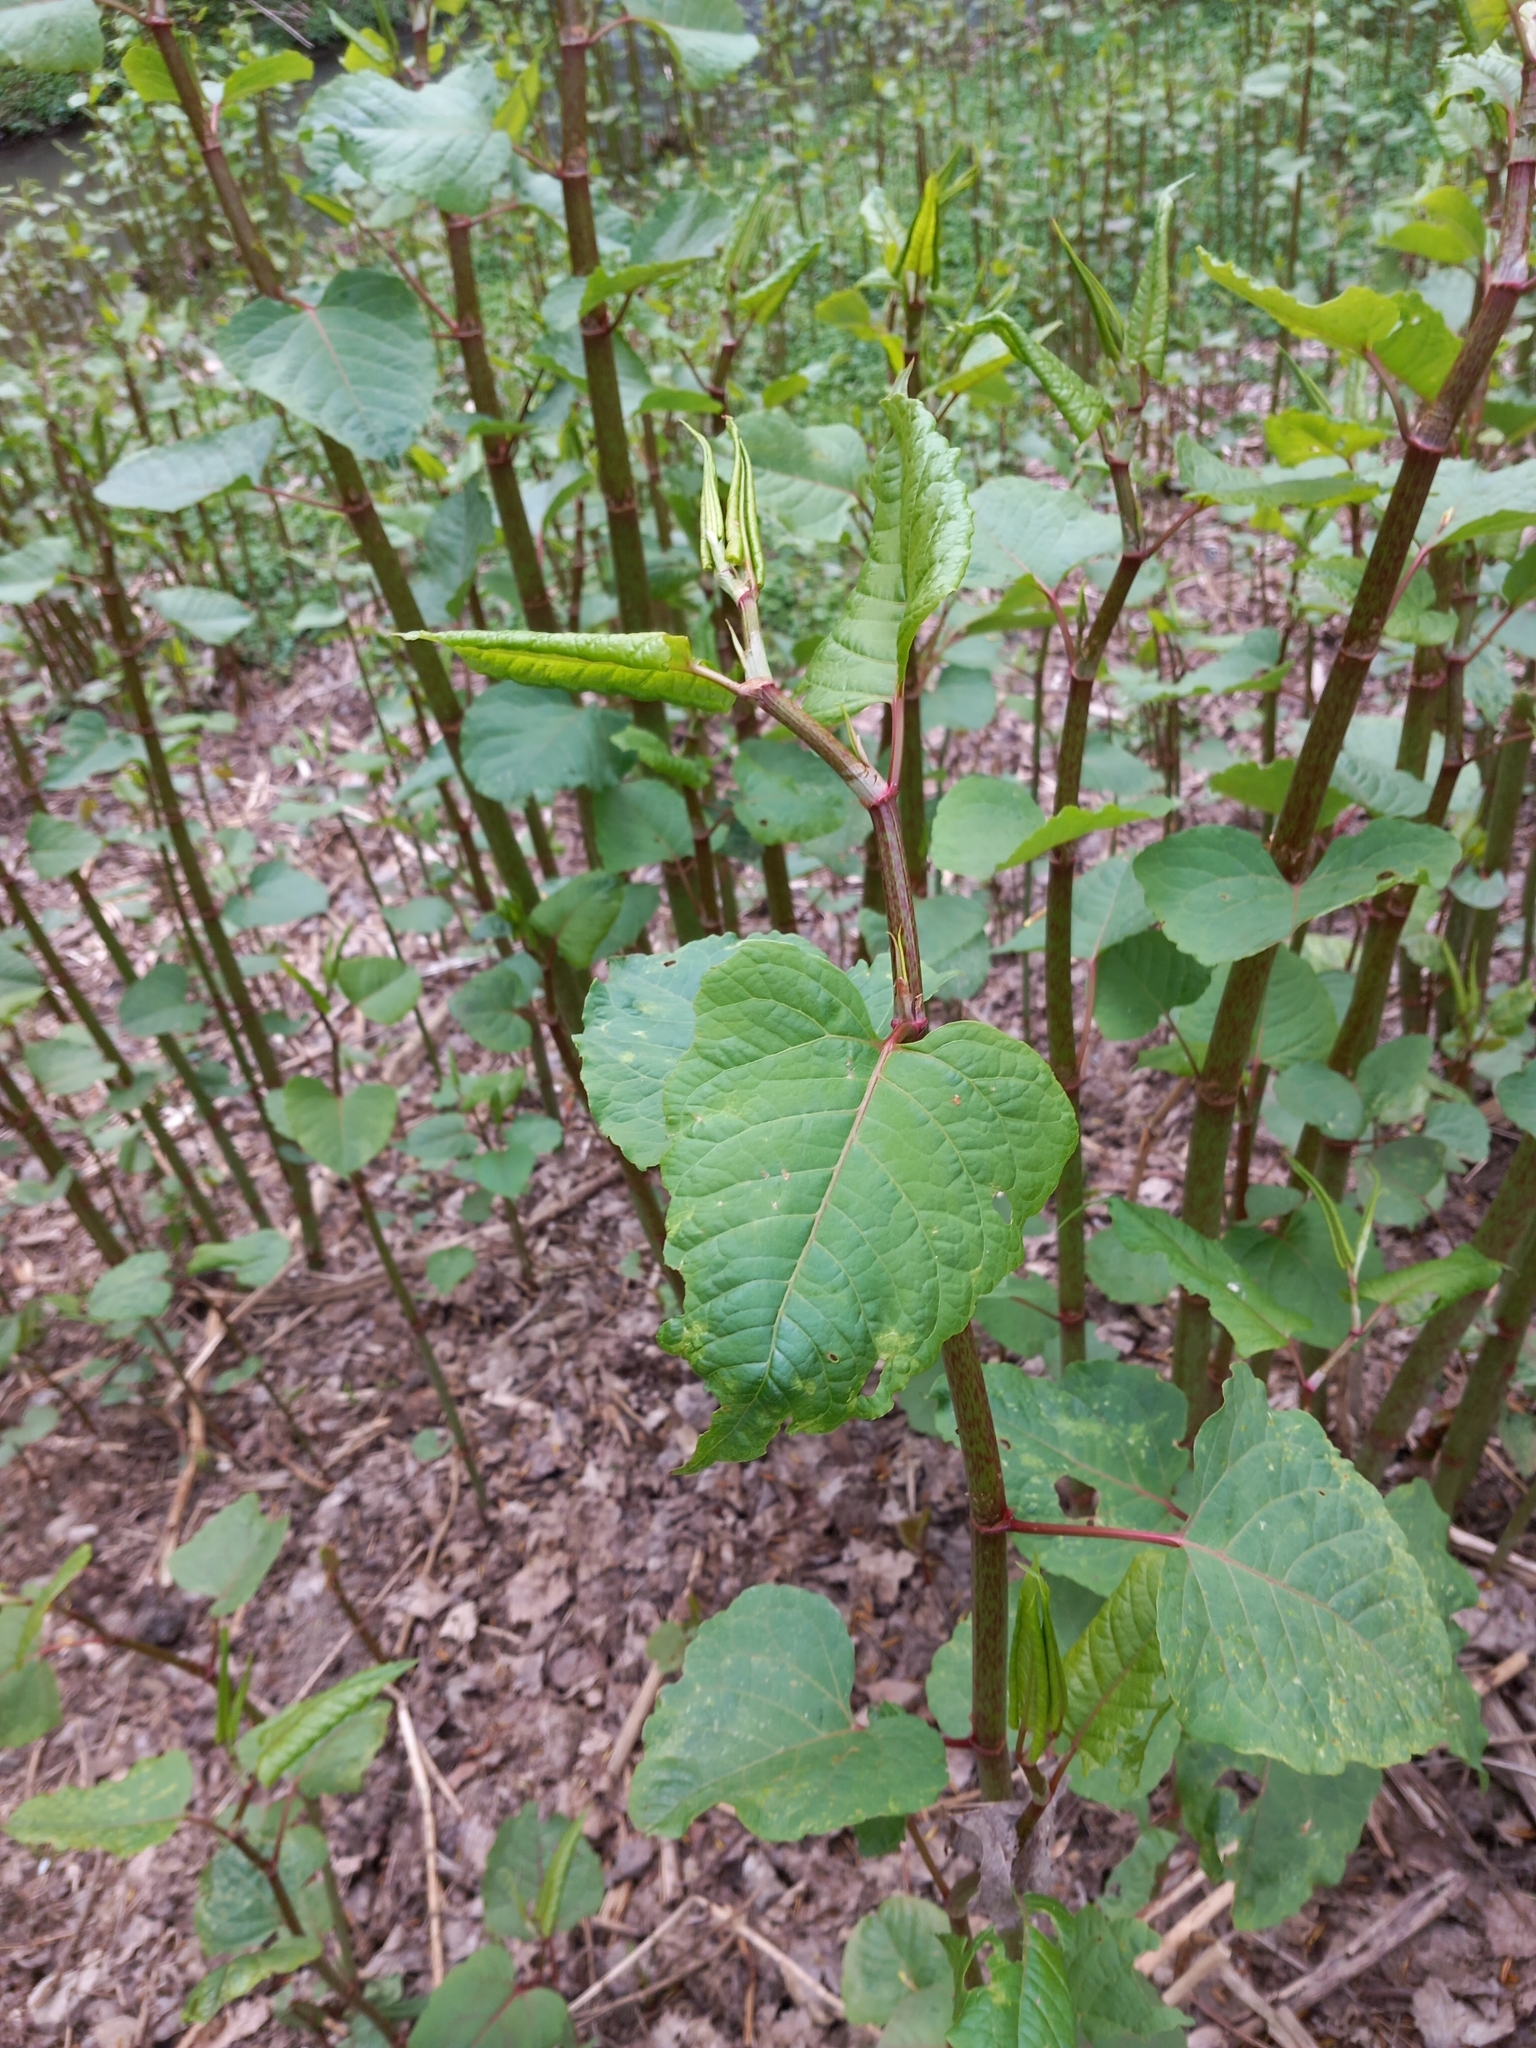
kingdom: Plantae
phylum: Tracheophyta
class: Magnoliopsida
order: Caryophyllales
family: Polygonaceae
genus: Reynoutria
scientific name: Reynoutria bohemica
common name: Bohemian knotweed
